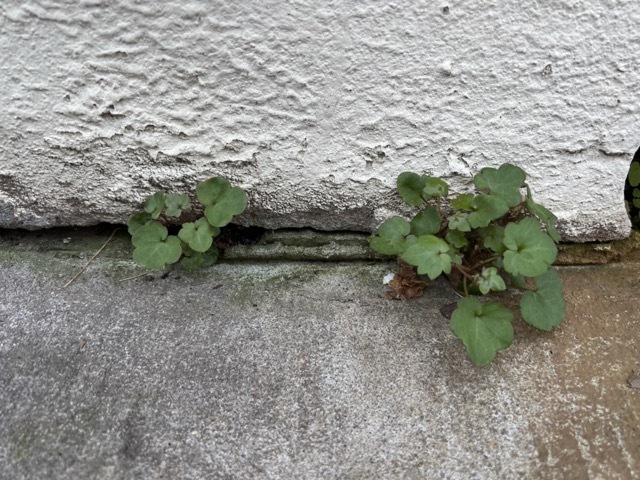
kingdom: Plantae
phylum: Tracheophyta
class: Magnoliopsida
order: Lamiales
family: Plantaginaceae
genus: Cymbalaria
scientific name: Cymbalaria muralis
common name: Ivy-leaved toadflax
